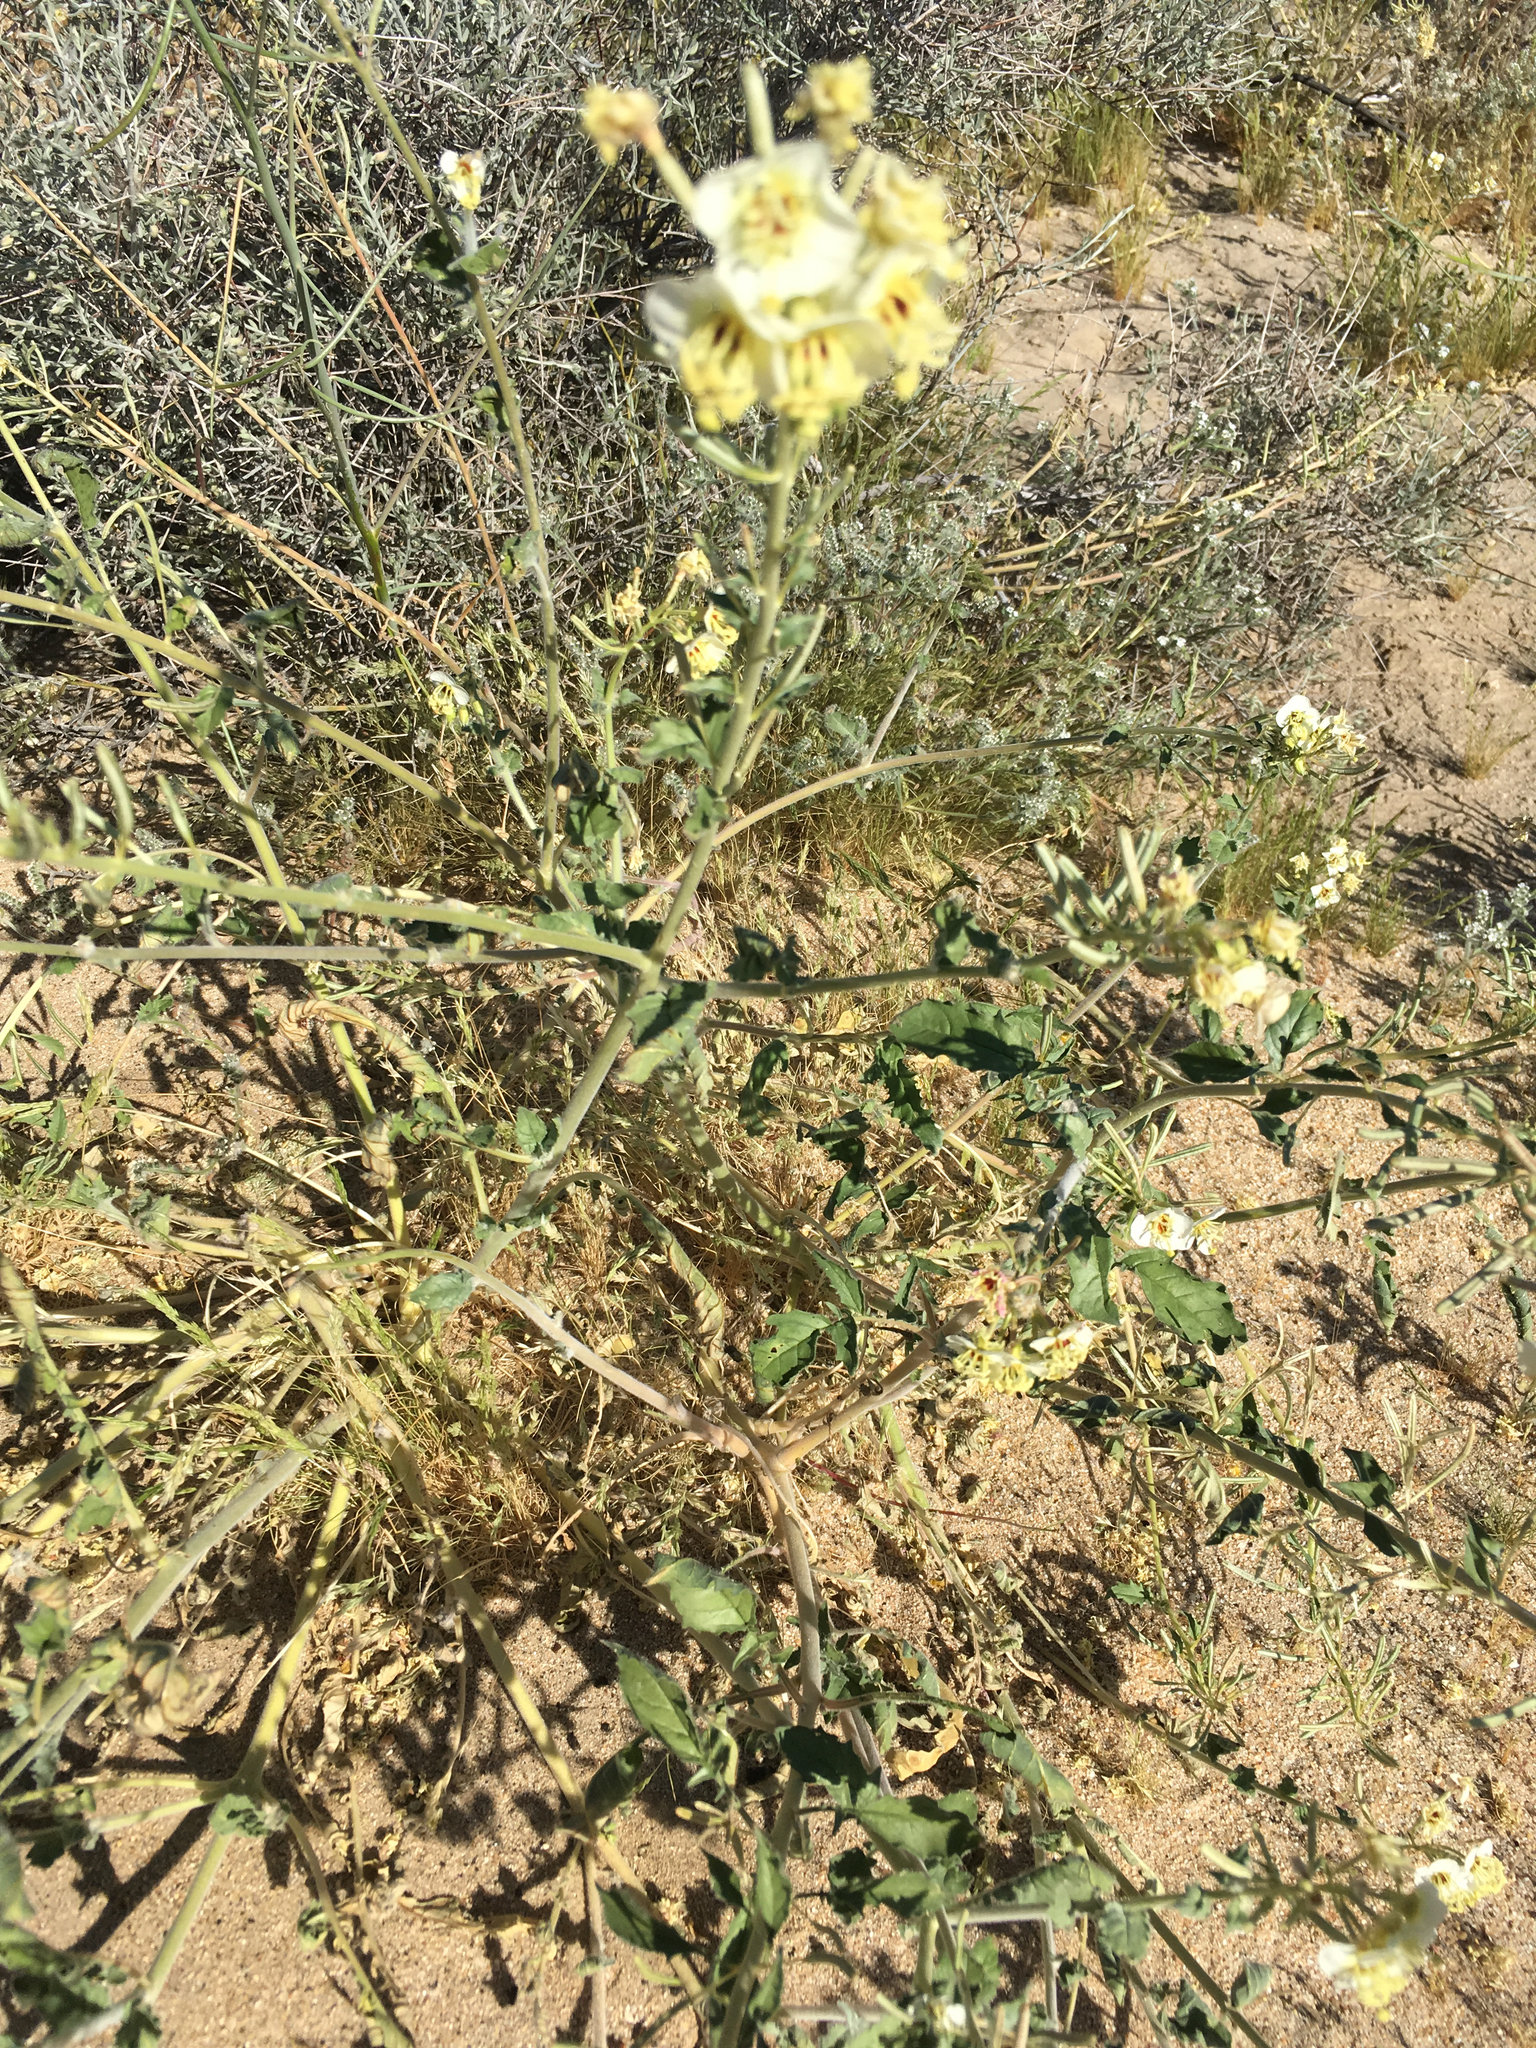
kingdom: Plantae
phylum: Tracheophyta
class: Magnoliopsida
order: Myrtales
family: Onagraceae
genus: Chylismia
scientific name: Chylismia claviformis
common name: Browneyes
